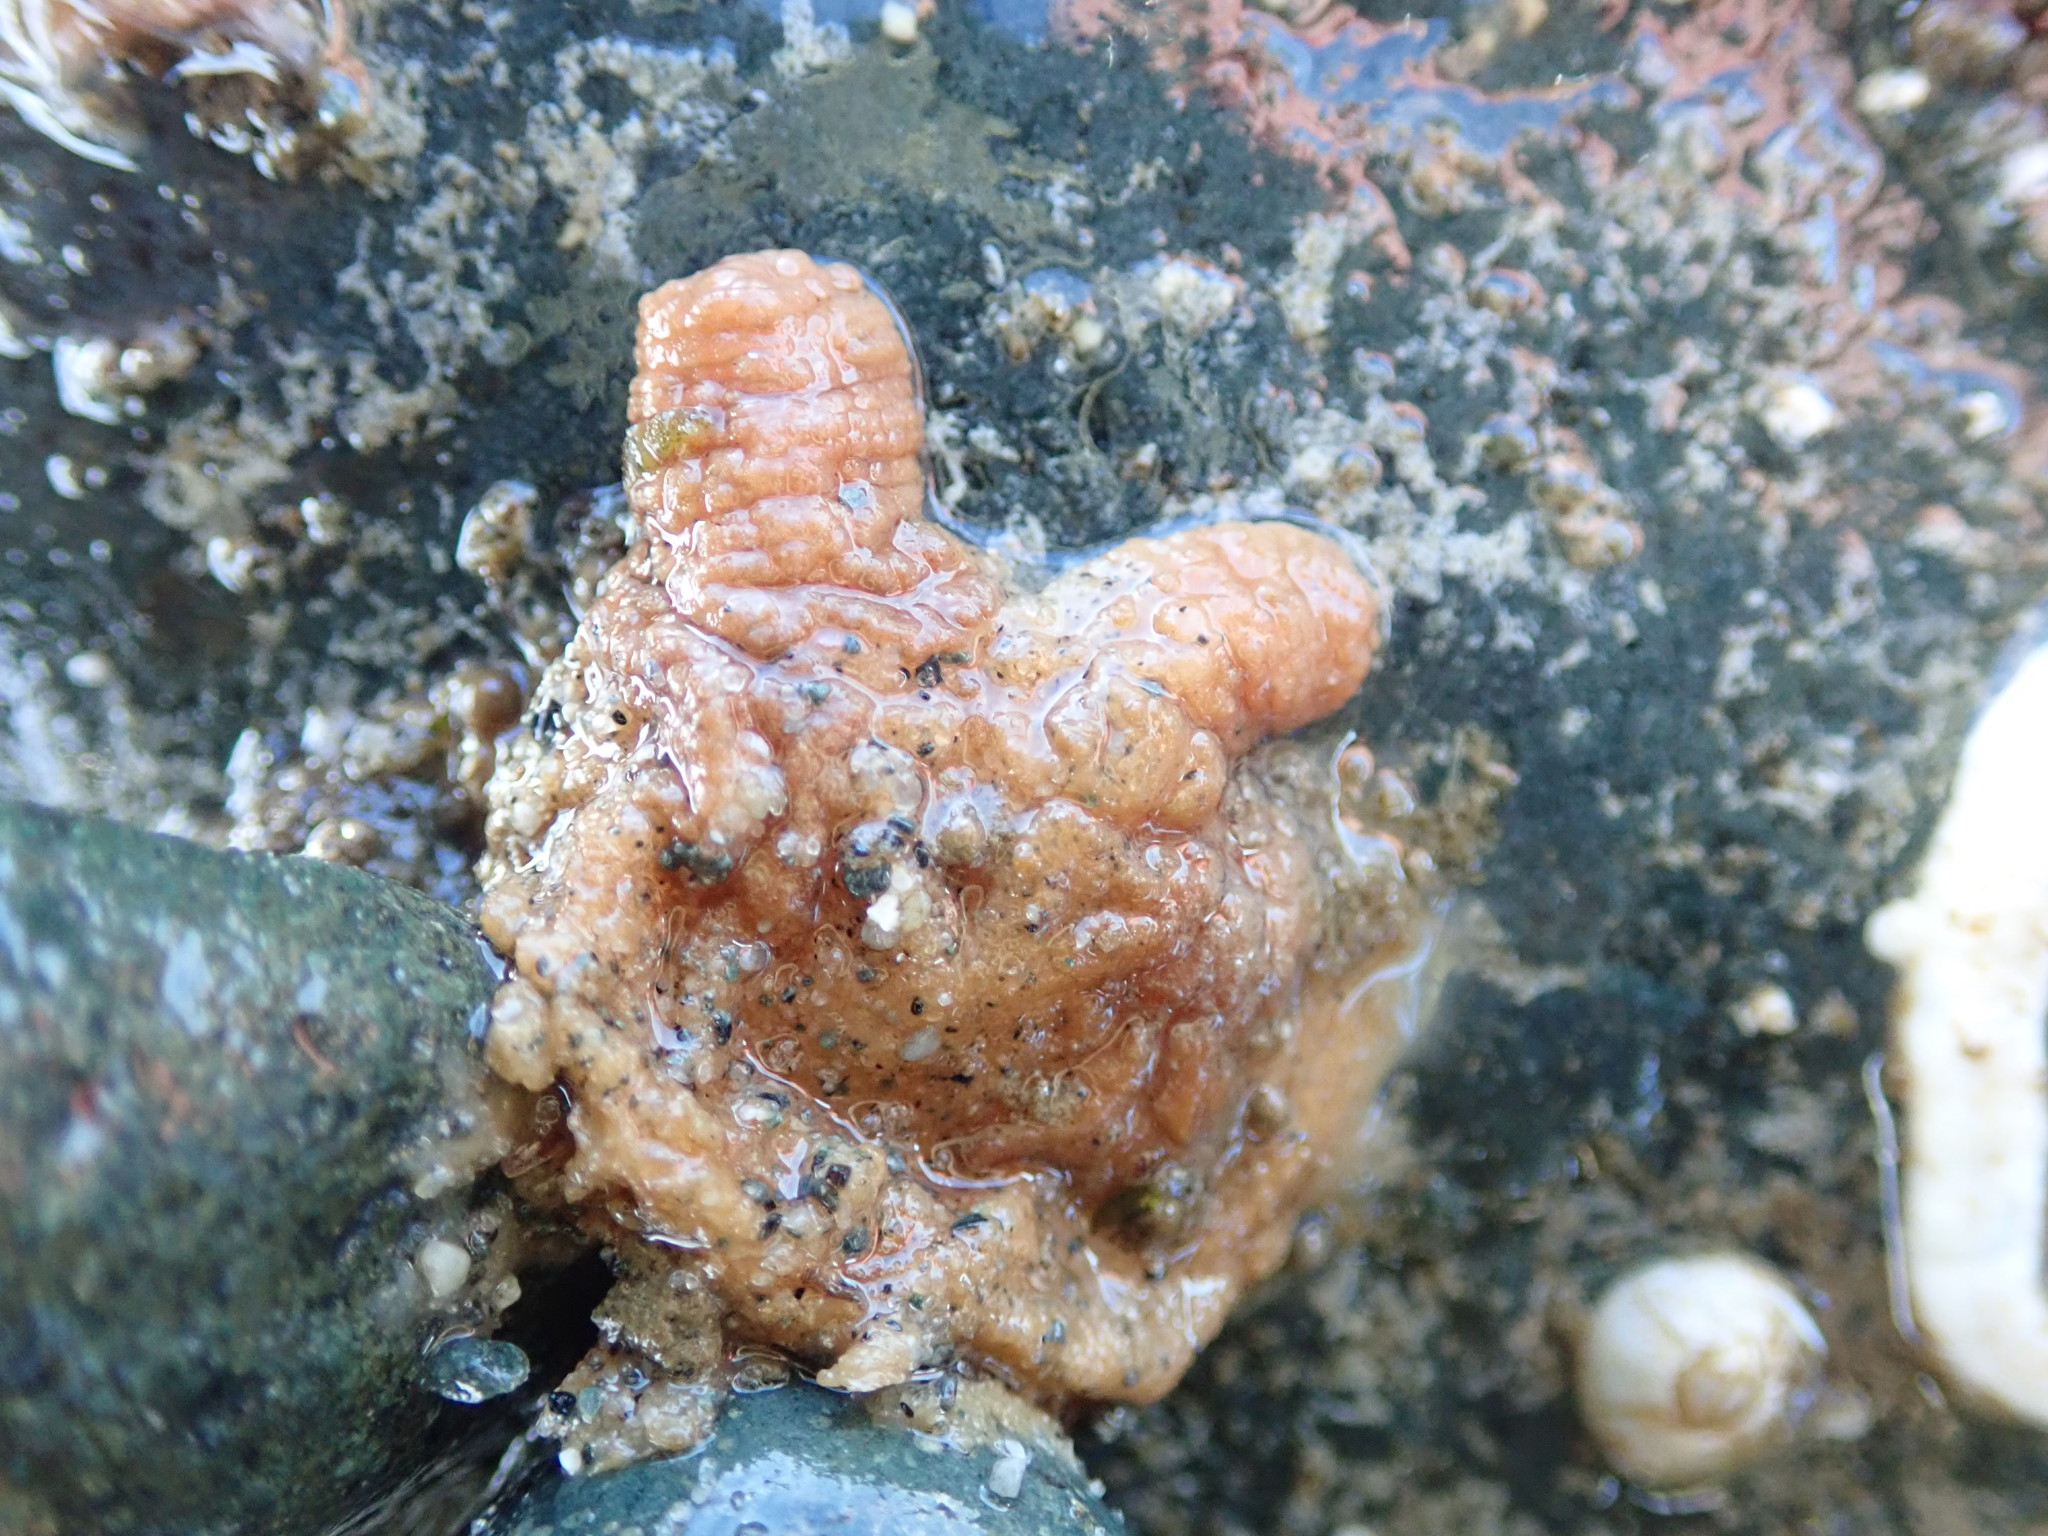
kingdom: Animalia
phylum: Chordata
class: Ascidiacea
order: Stolidobranchia
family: Pyuridae
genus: Pyura
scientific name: Pyura haustor
